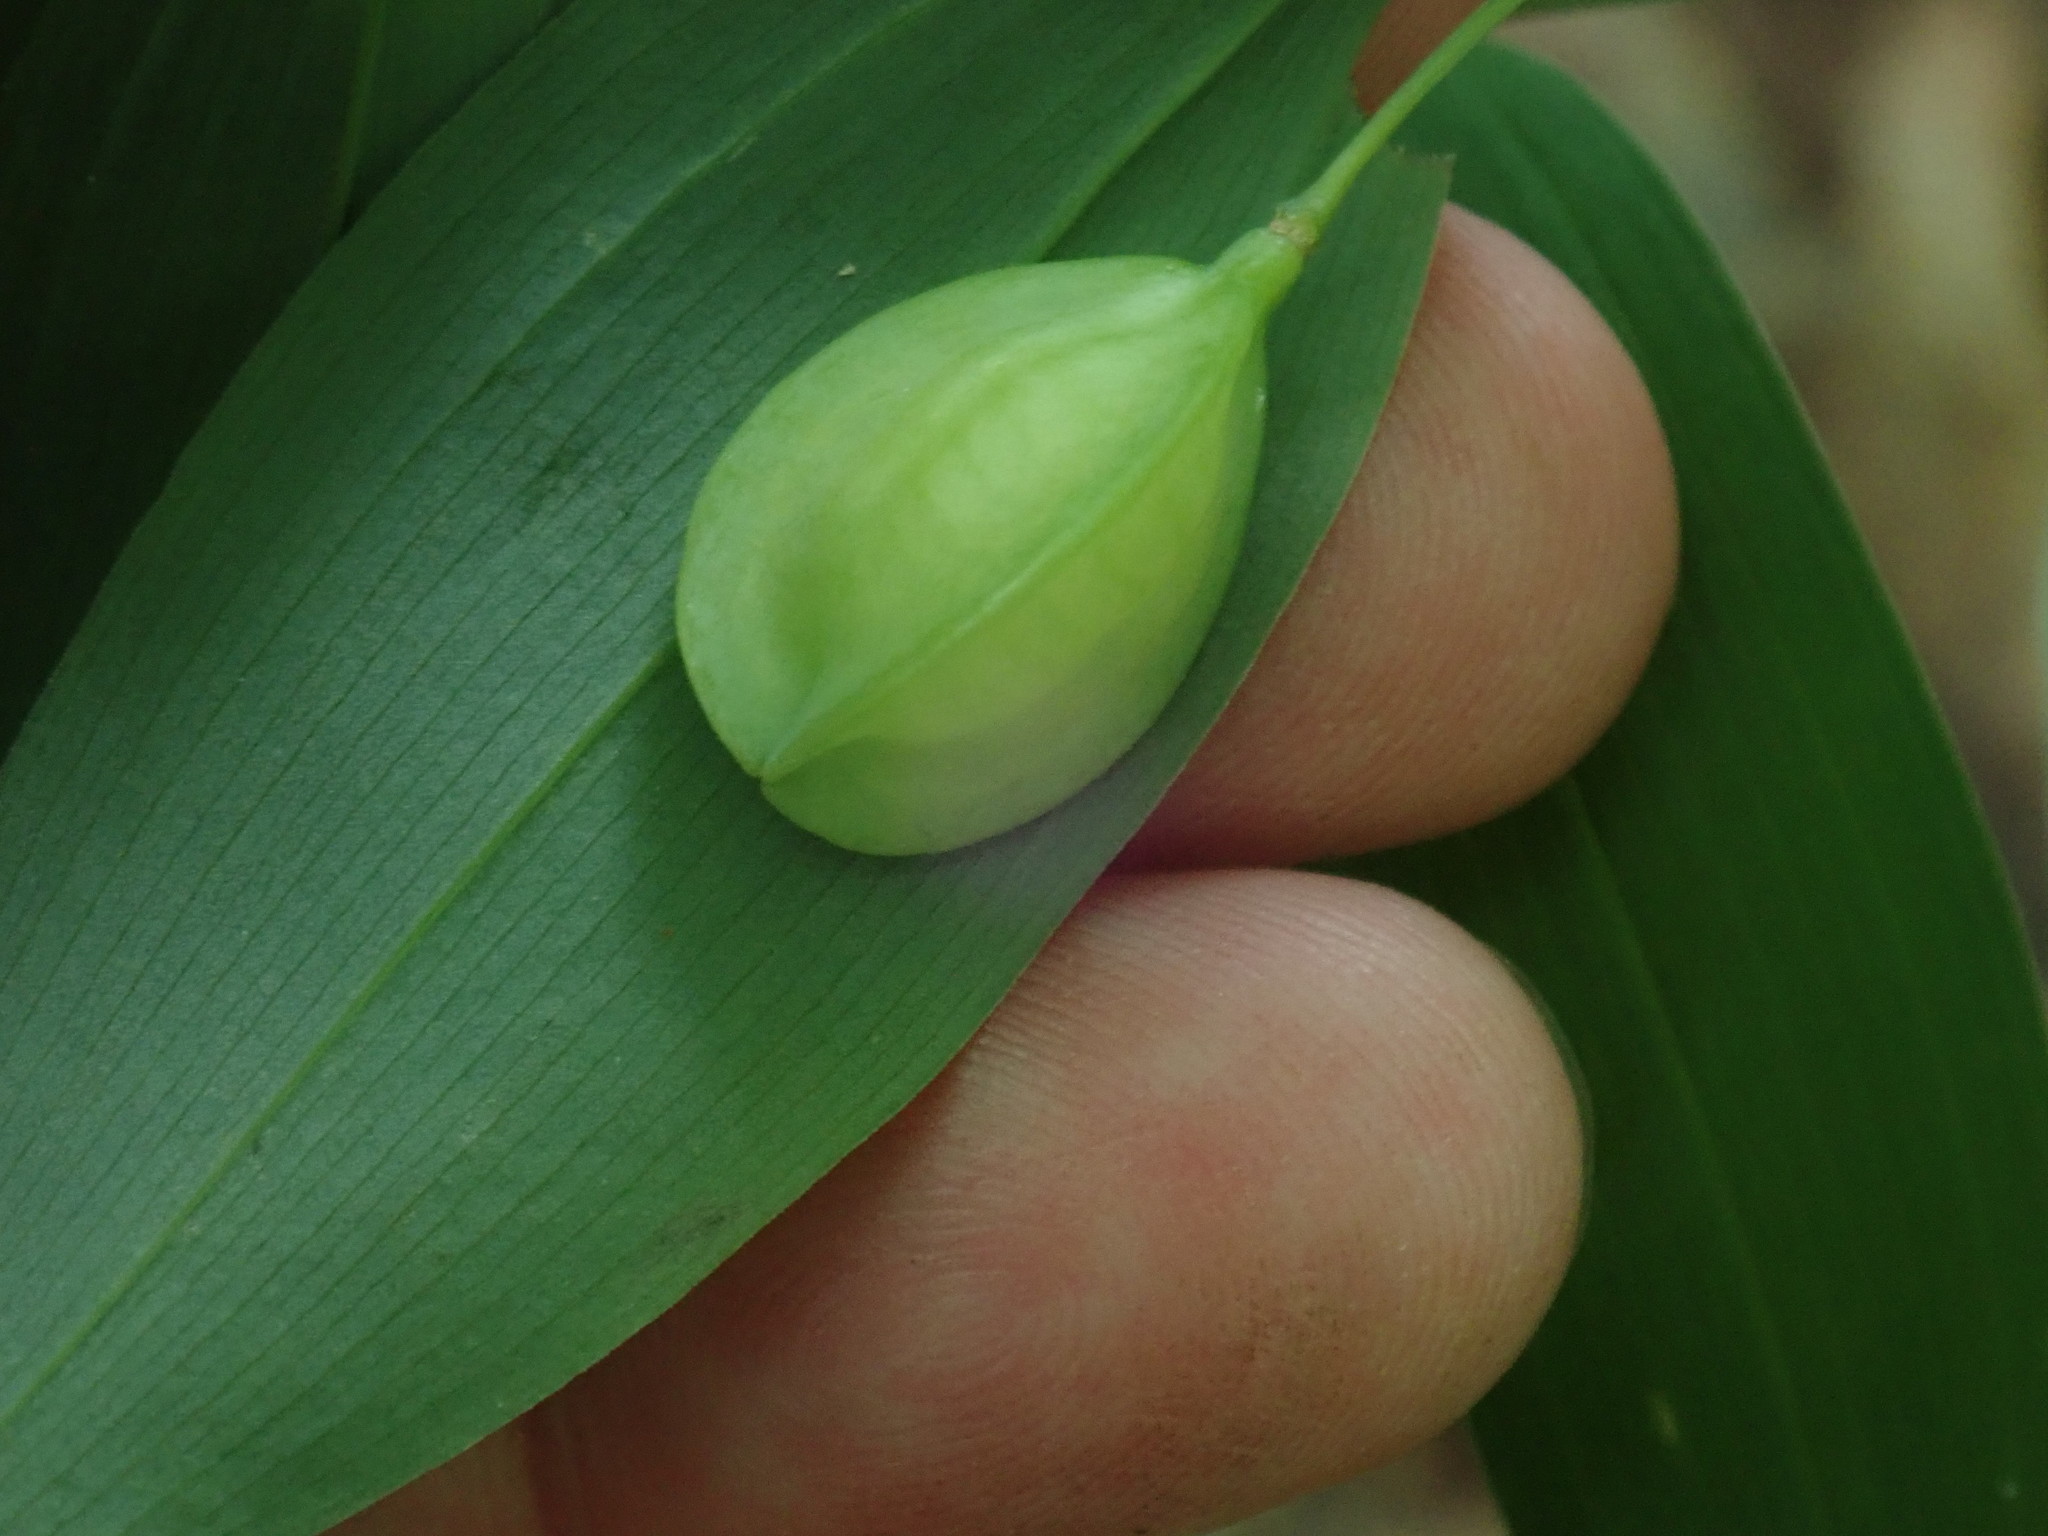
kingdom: Plantae
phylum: Tracheophyta
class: Liliopsida
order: Liliales
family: Colchicaceae
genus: Uvularia
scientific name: Uvularia sessilifolia
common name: Straw-lily
